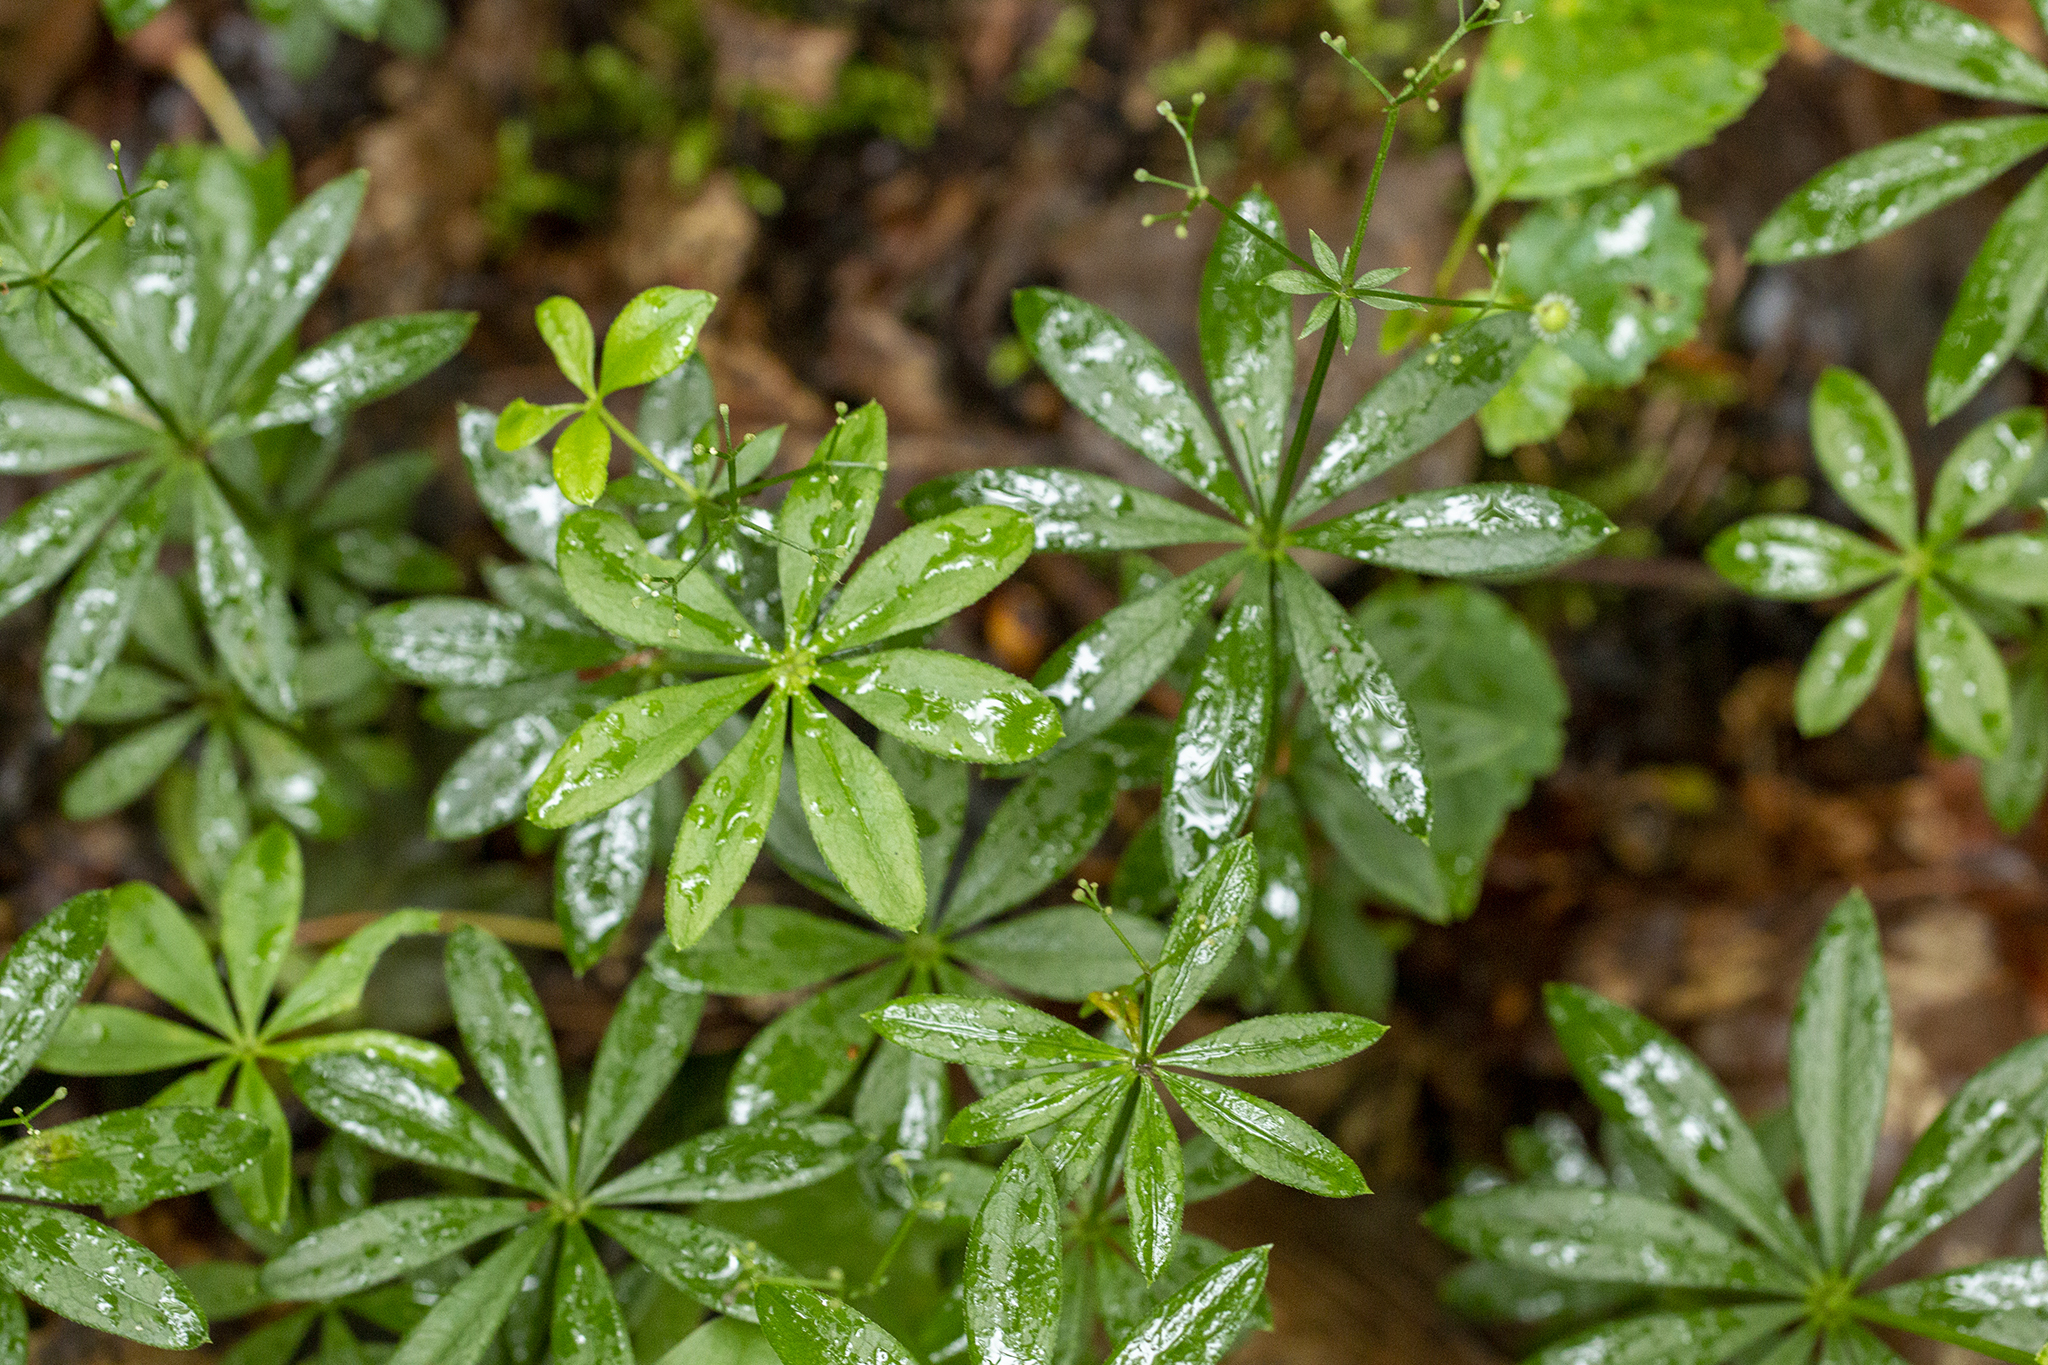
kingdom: Plantae
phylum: Tracheophyta
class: Magnoliopsida
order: Gentianales
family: Rubiaceae
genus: Galium
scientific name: Galium odoratum
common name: Sweet woodruff
